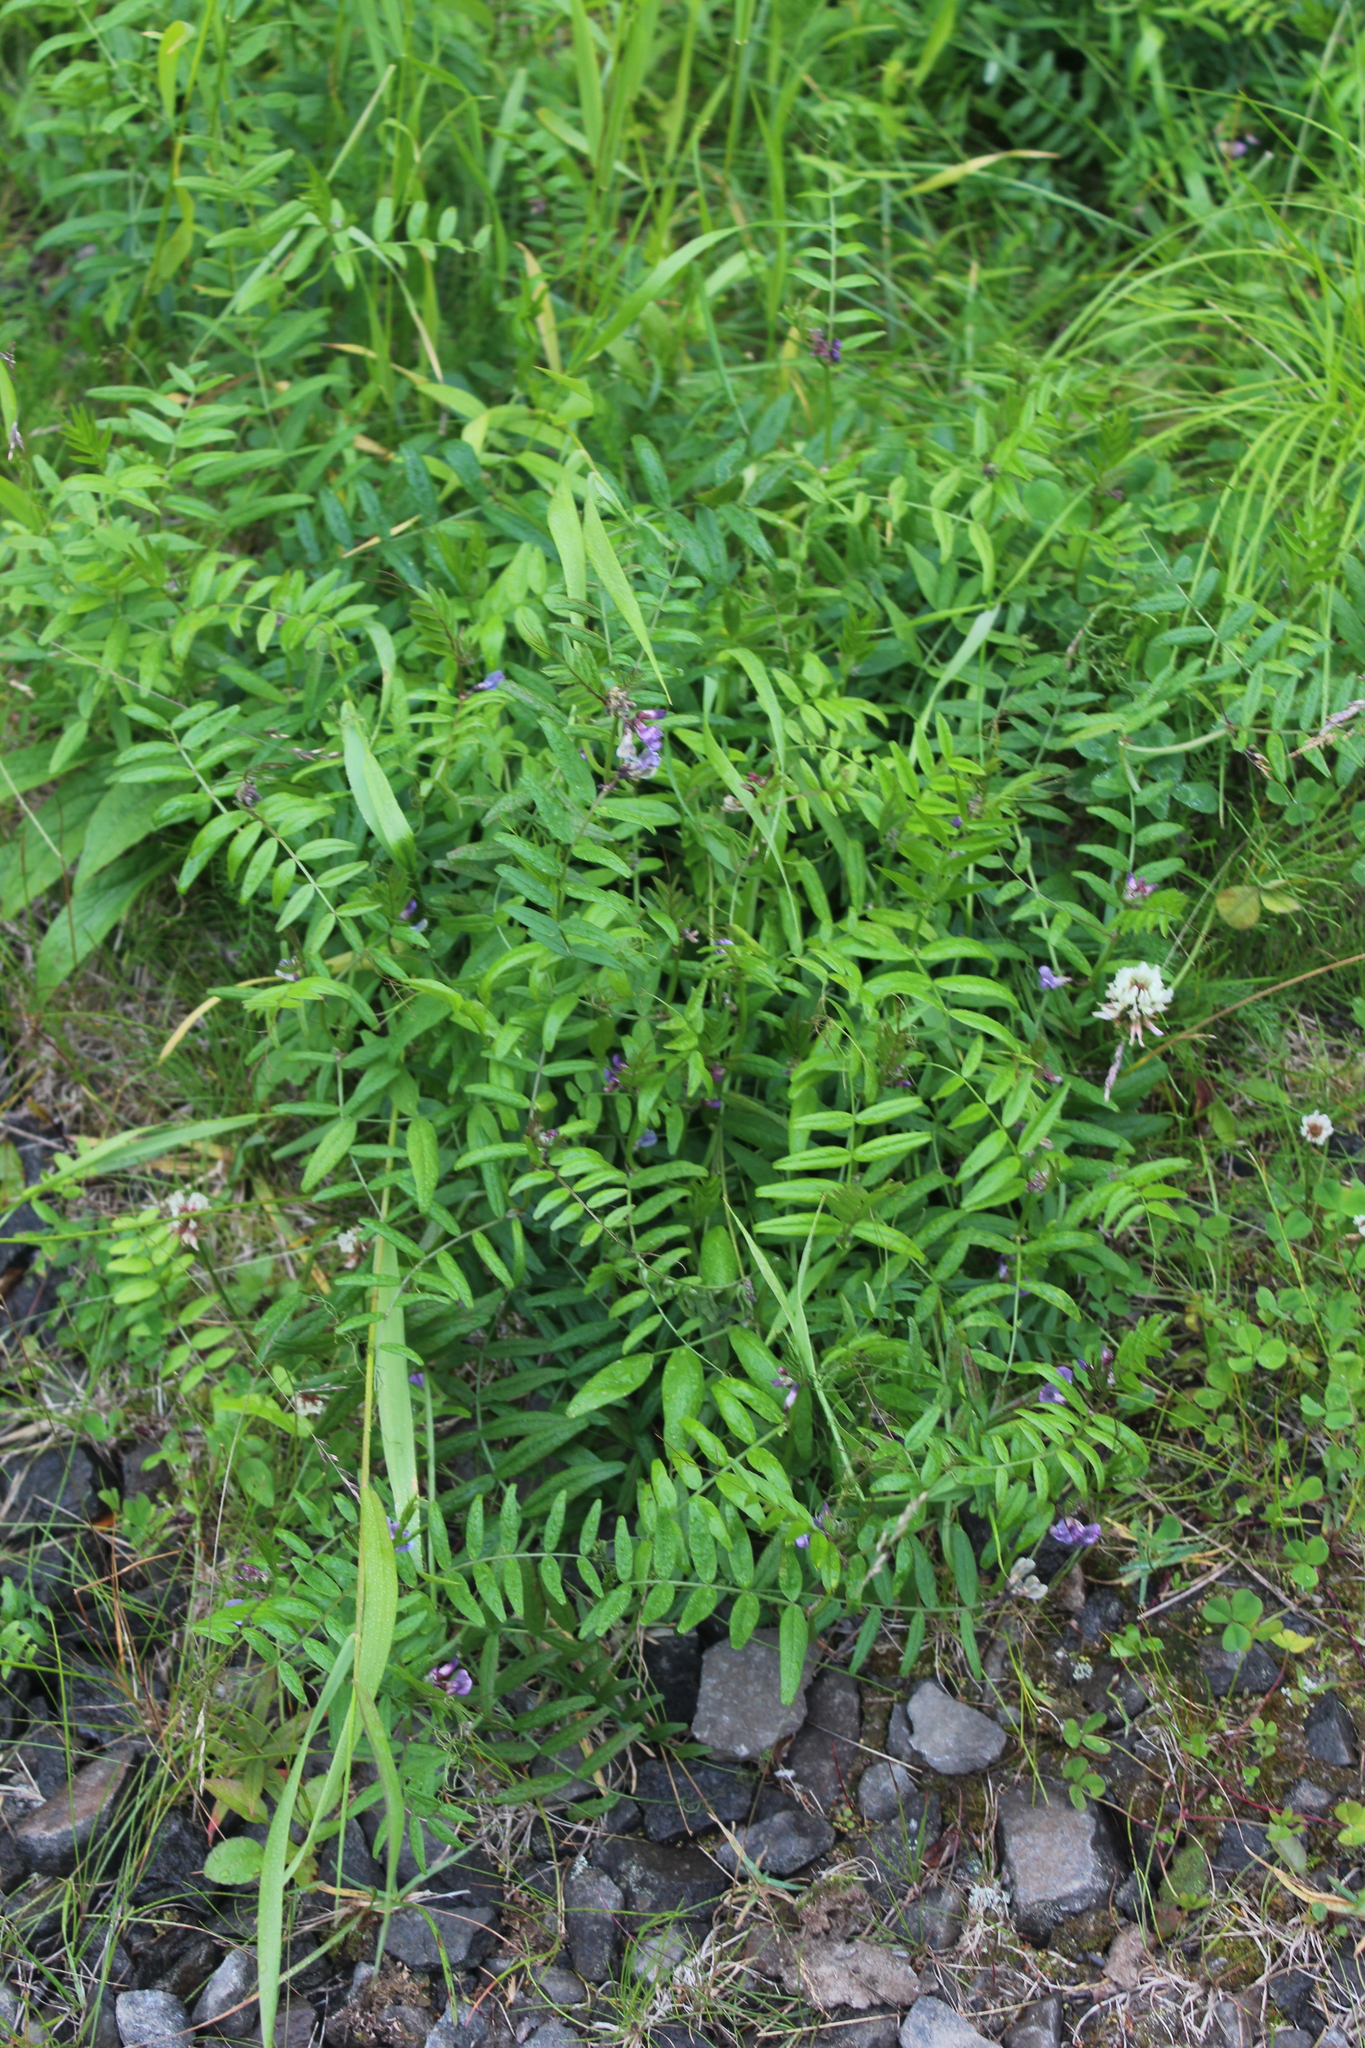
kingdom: Plantae
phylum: Tracheophyta
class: Magnoliopsida
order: Fabales
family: Fabaceae
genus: Vicia
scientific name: Vicia sepium
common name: Bush vetch
